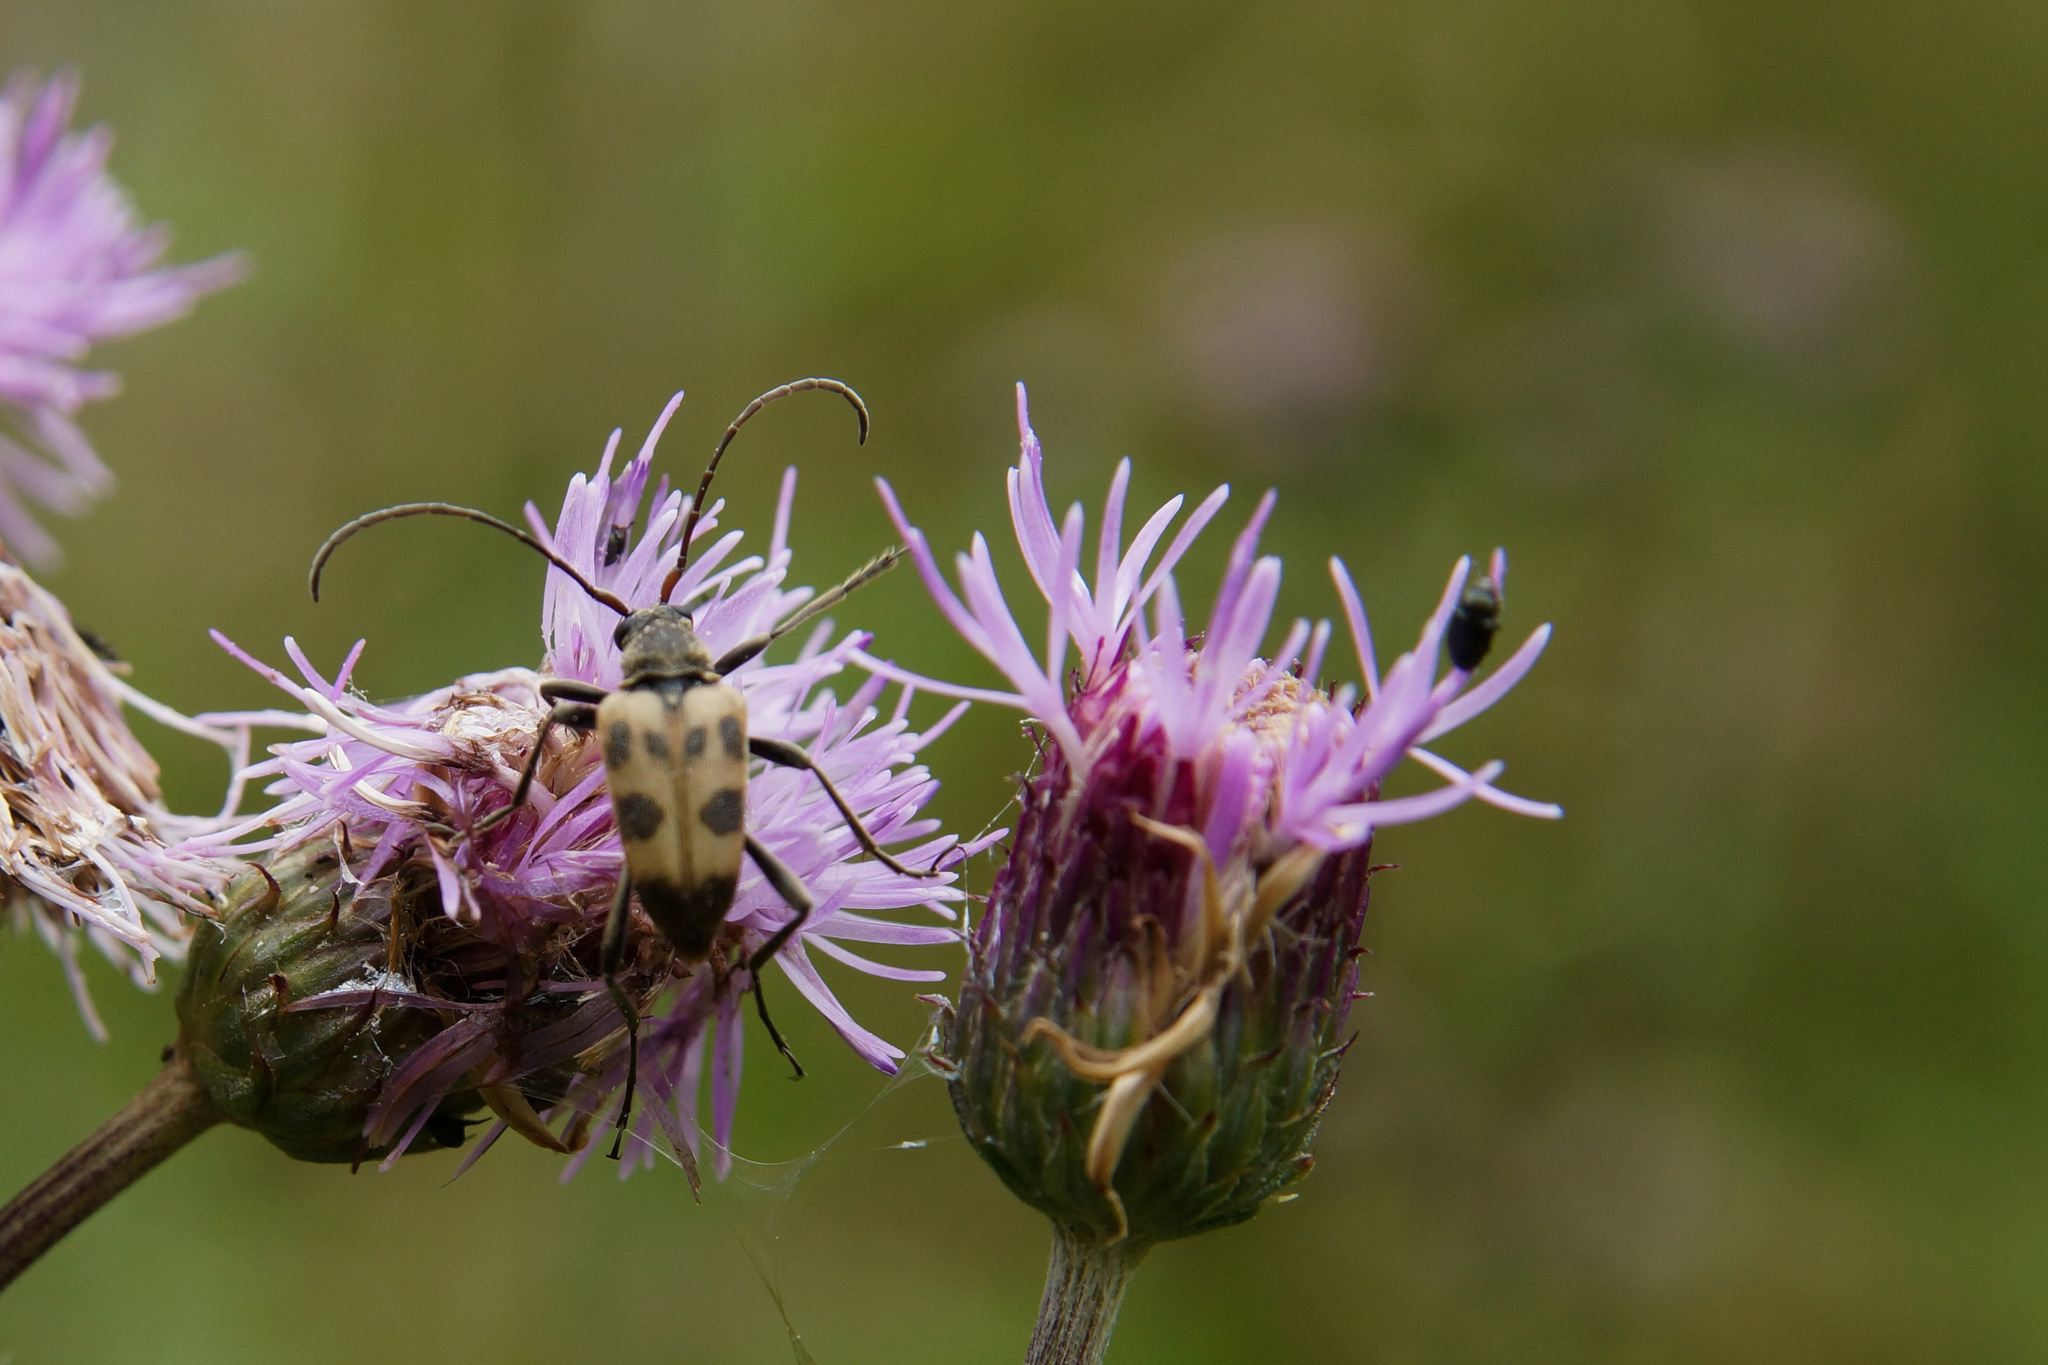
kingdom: Animalia
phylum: Arthropoda
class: Insecta
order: Coleoptera
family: Cerambycidae
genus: Pachytodes
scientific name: Pachytodes cerambyciformis
